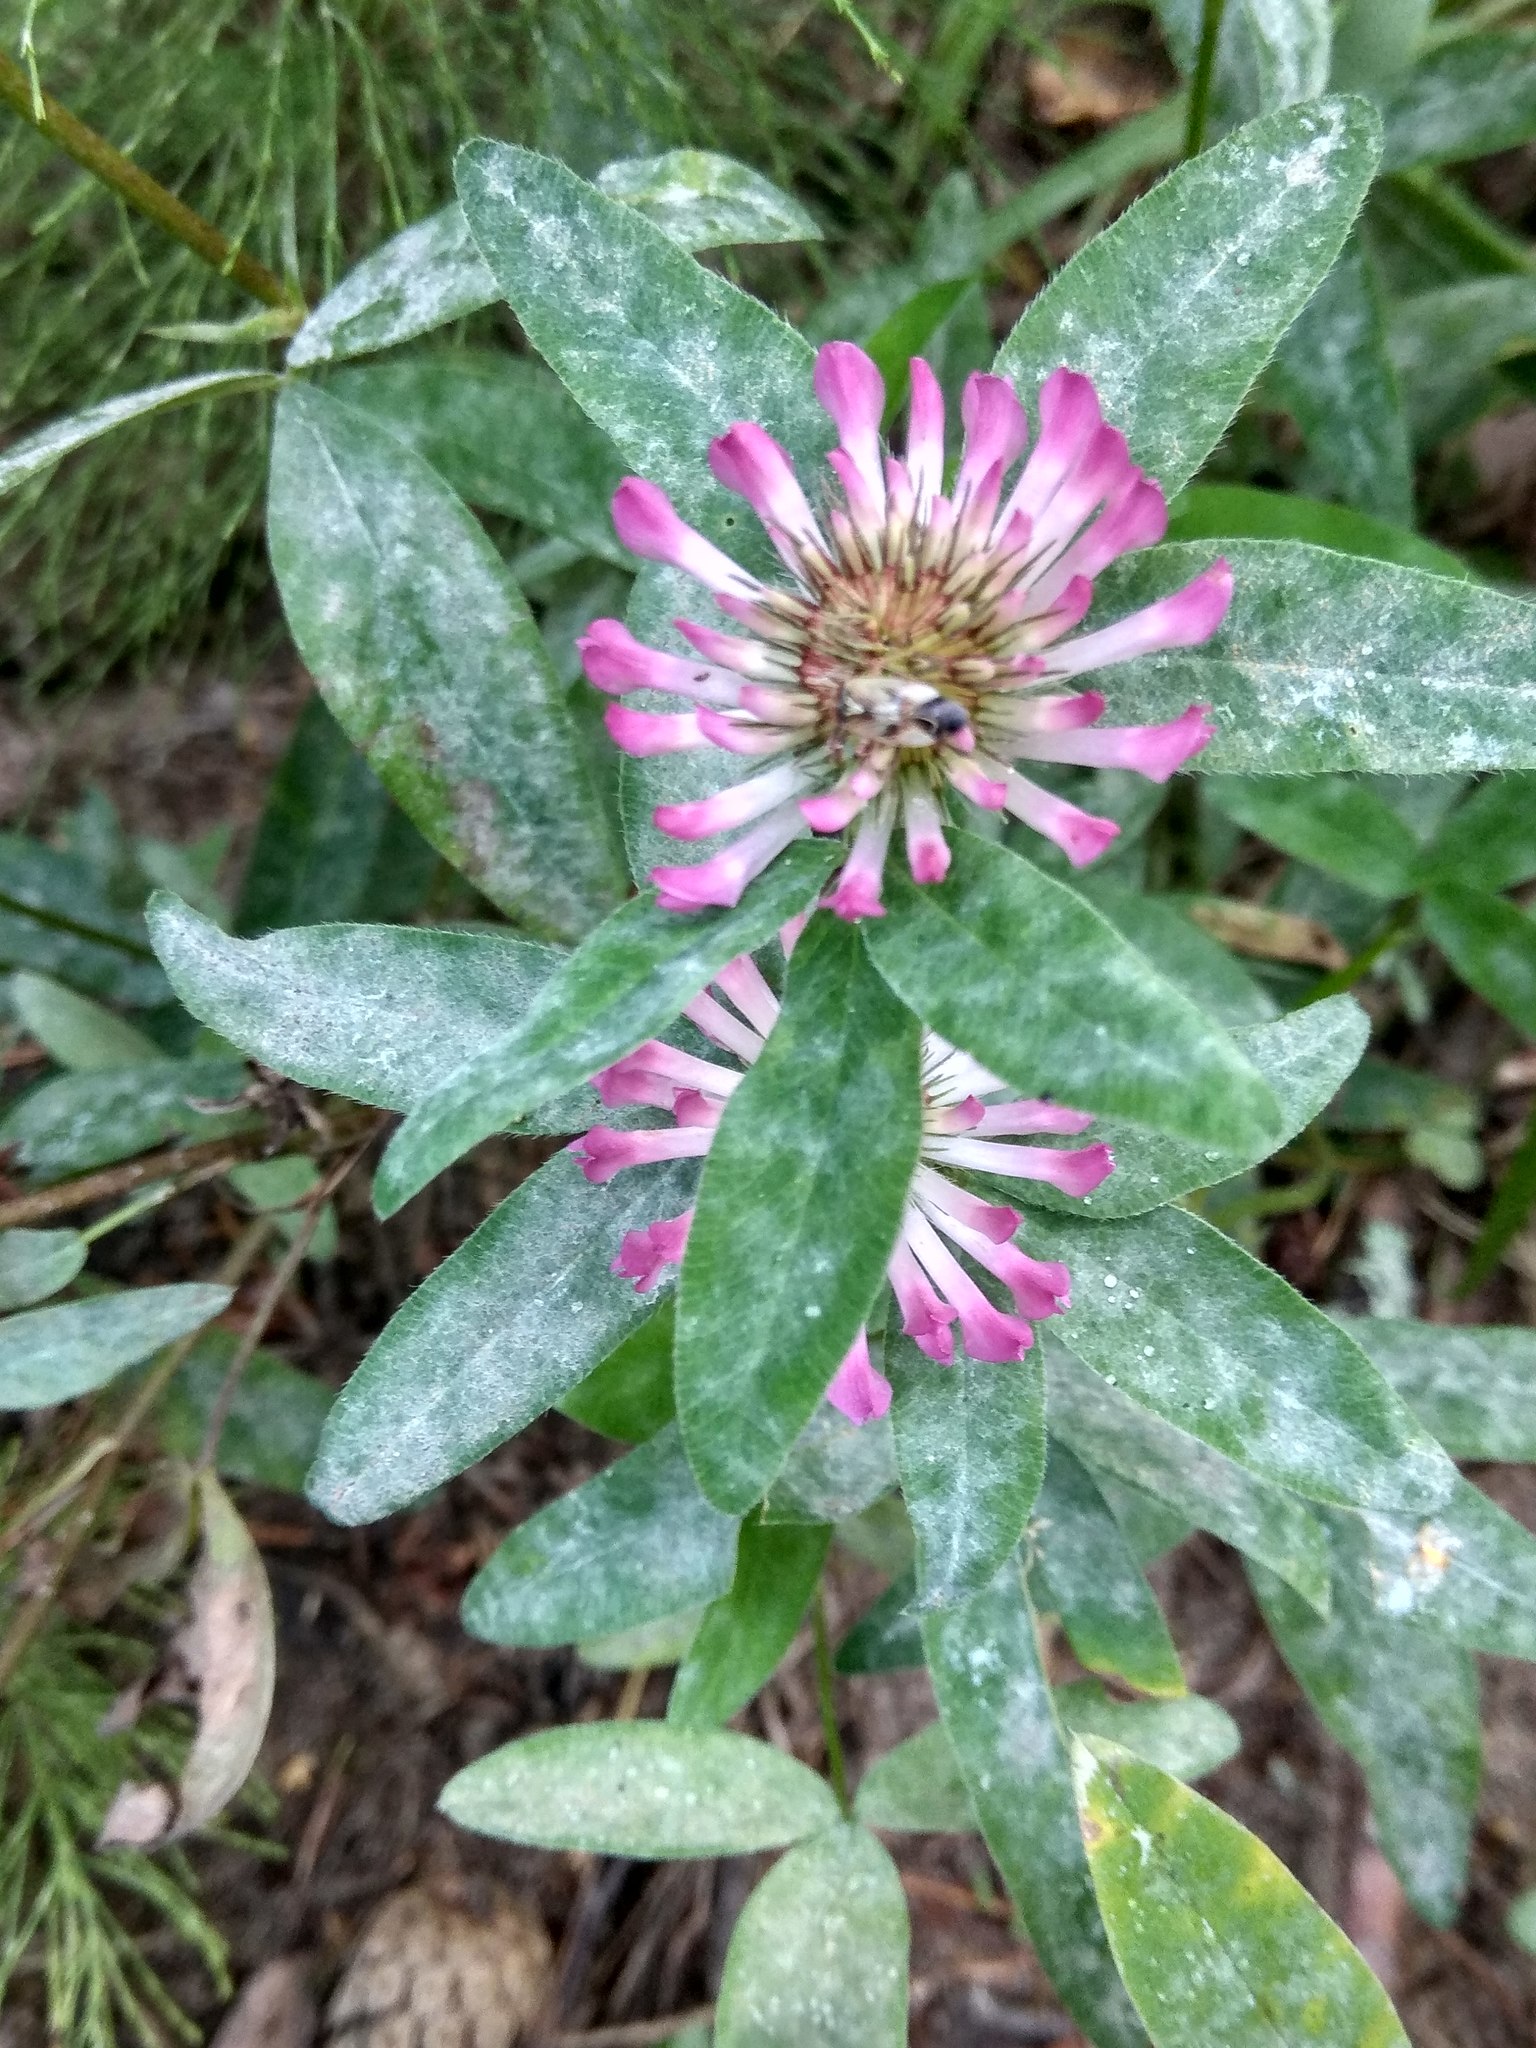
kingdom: Plantae
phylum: Tracheophyta
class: Magnoliopsida
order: Fabales
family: Fabaceae
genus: Trifolium
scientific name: Trifolium medium
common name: Zigzag clover
